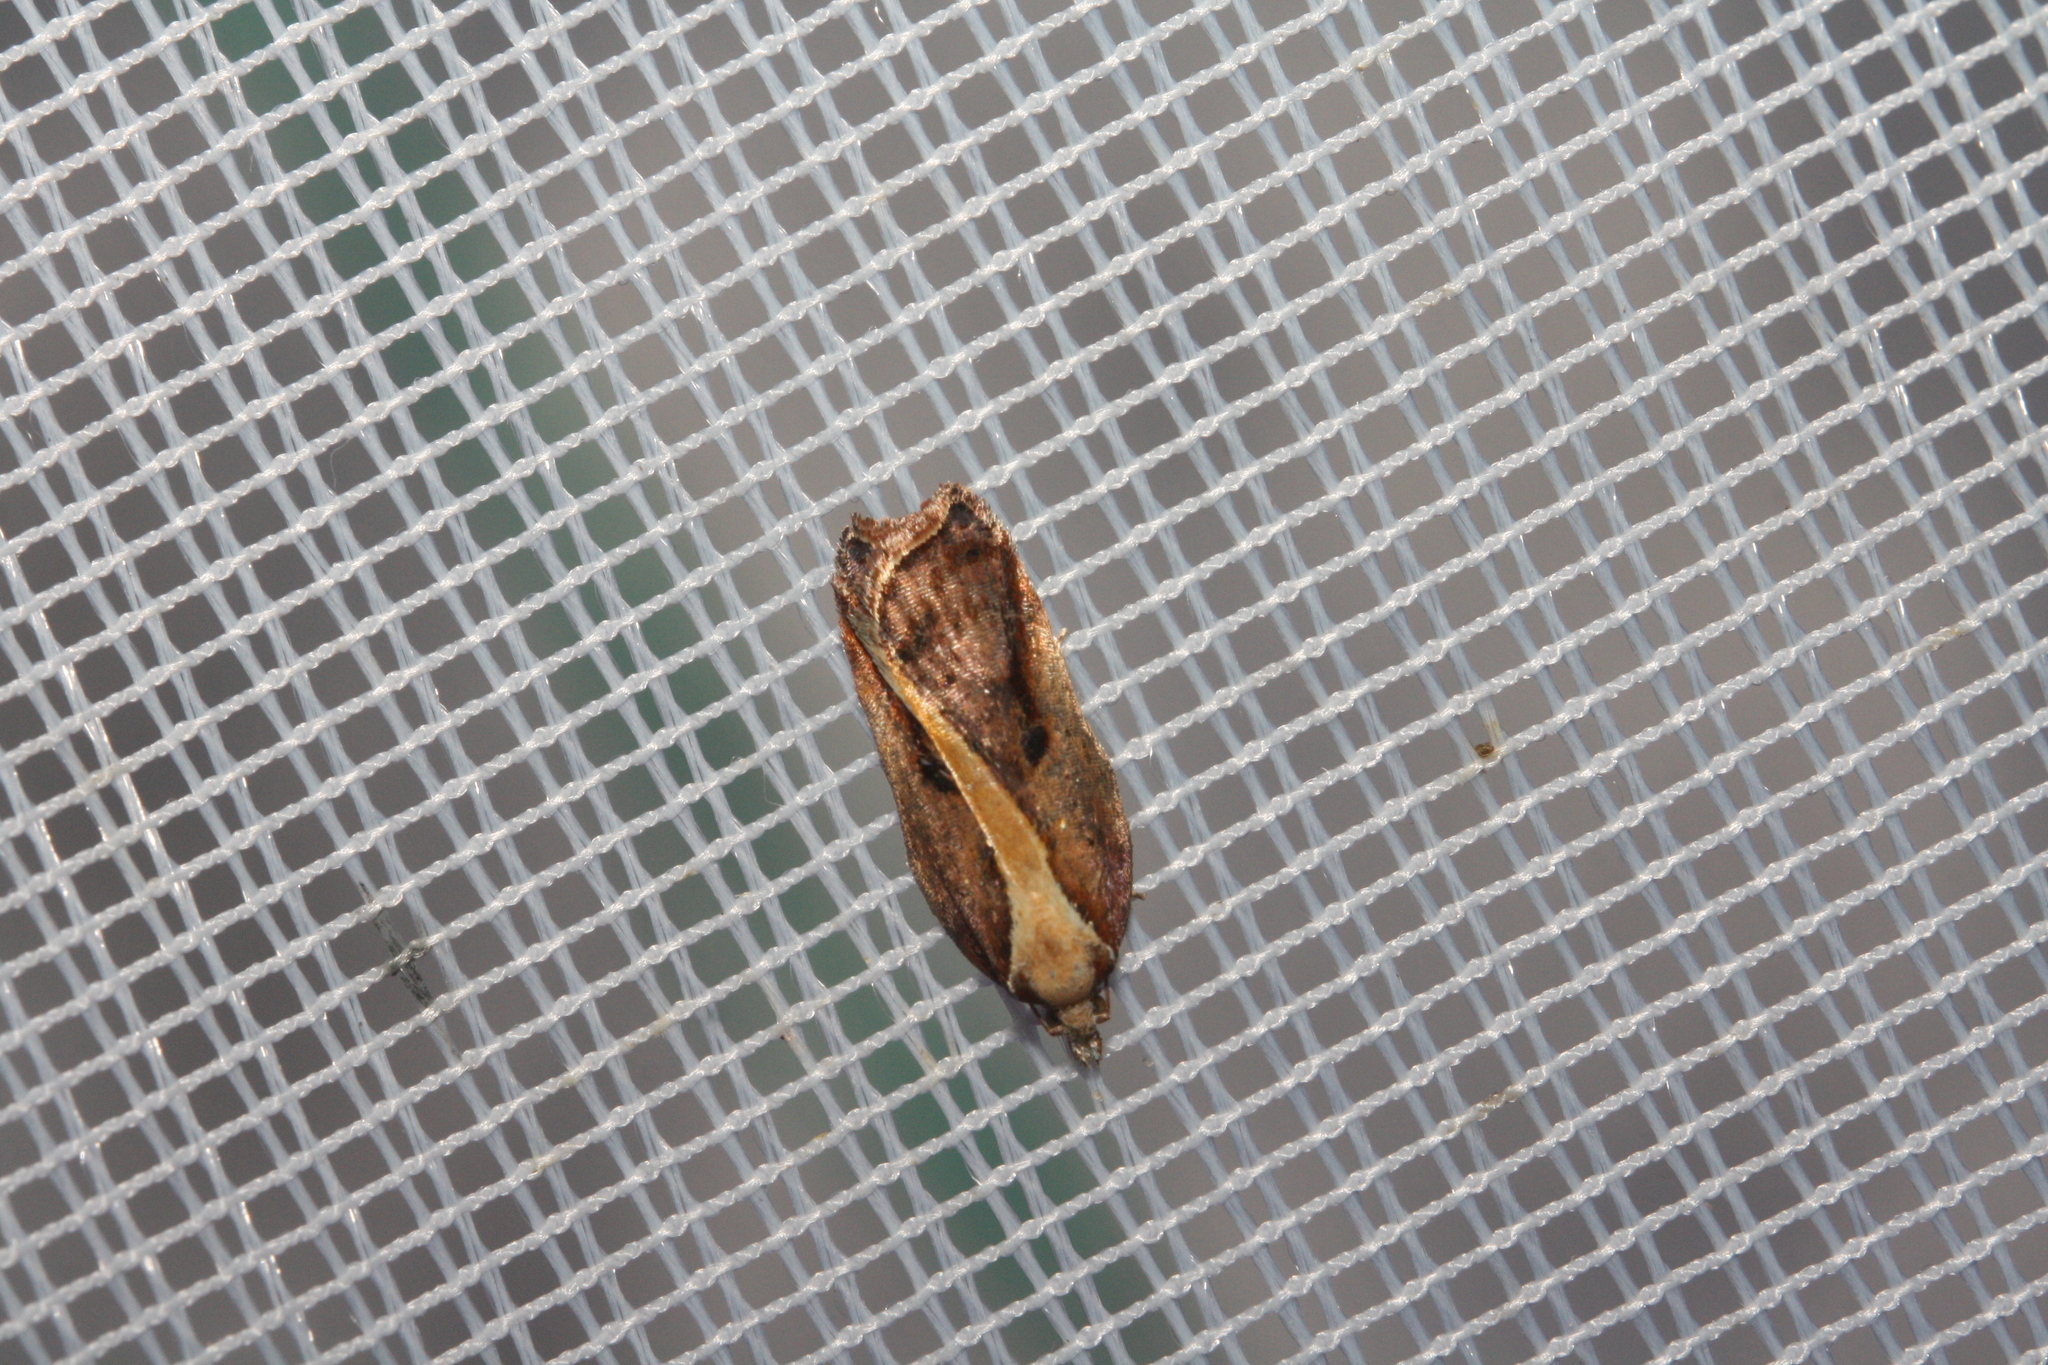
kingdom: Animalia
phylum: Arthropoda
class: Insecta
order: Lepidoptera
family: Tortricidae
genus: Acleris
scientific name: Acleris cristana
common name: Tufted button
